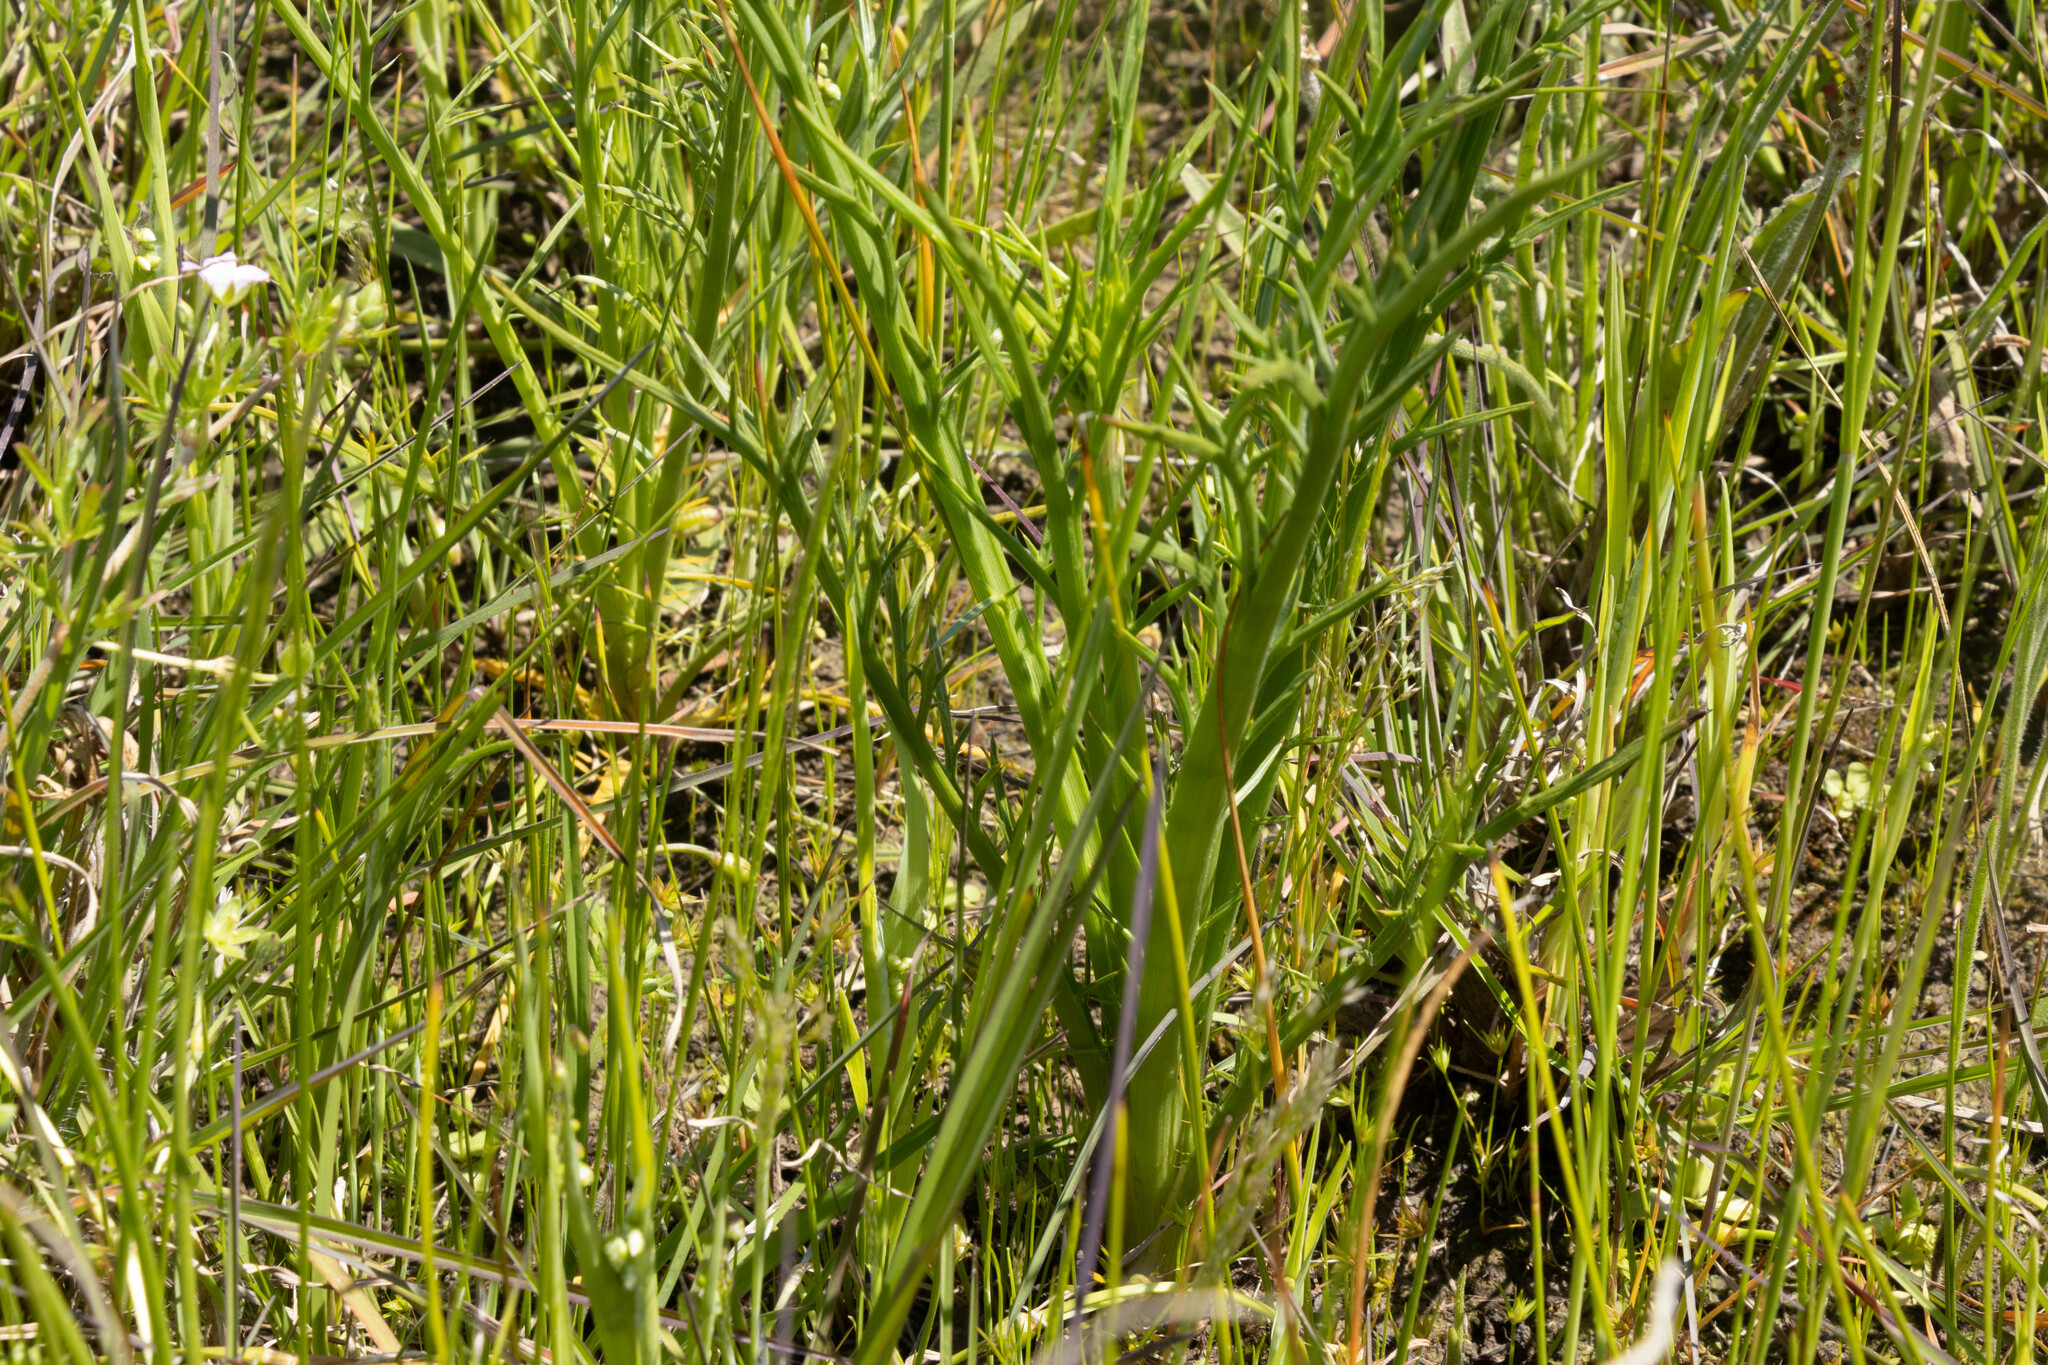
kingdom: Plantae
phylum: Tracheophyta
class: Magnoliopsida
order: Apiales
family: Apiaceae
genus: Eryngium
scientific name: Eryngium ovinum
